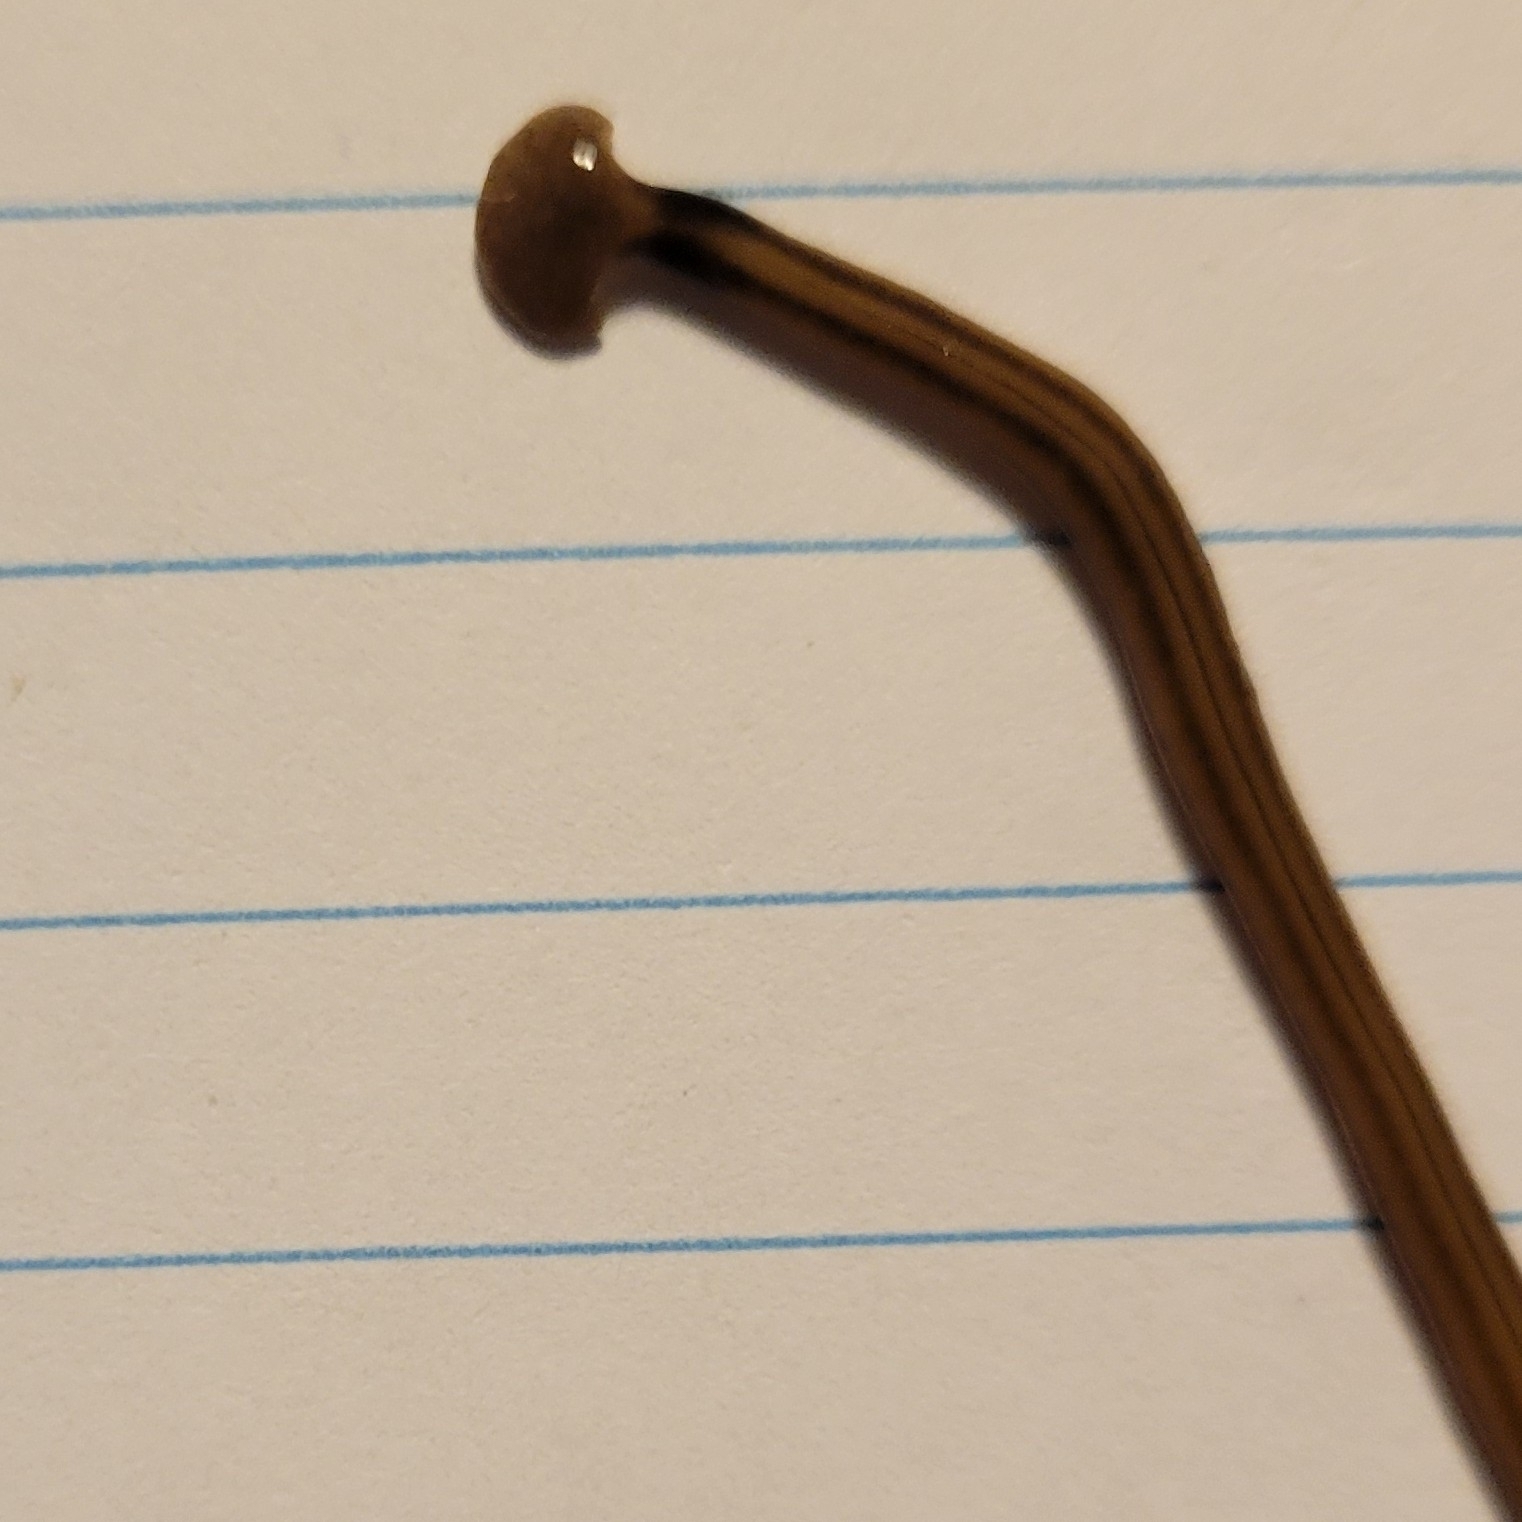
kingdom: Animalia
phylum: Platyhelminthes
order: Tricladida
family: Geoplanidae
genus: Bipalium
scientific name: Bipalium kewense
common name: Hammerhead flatworm
